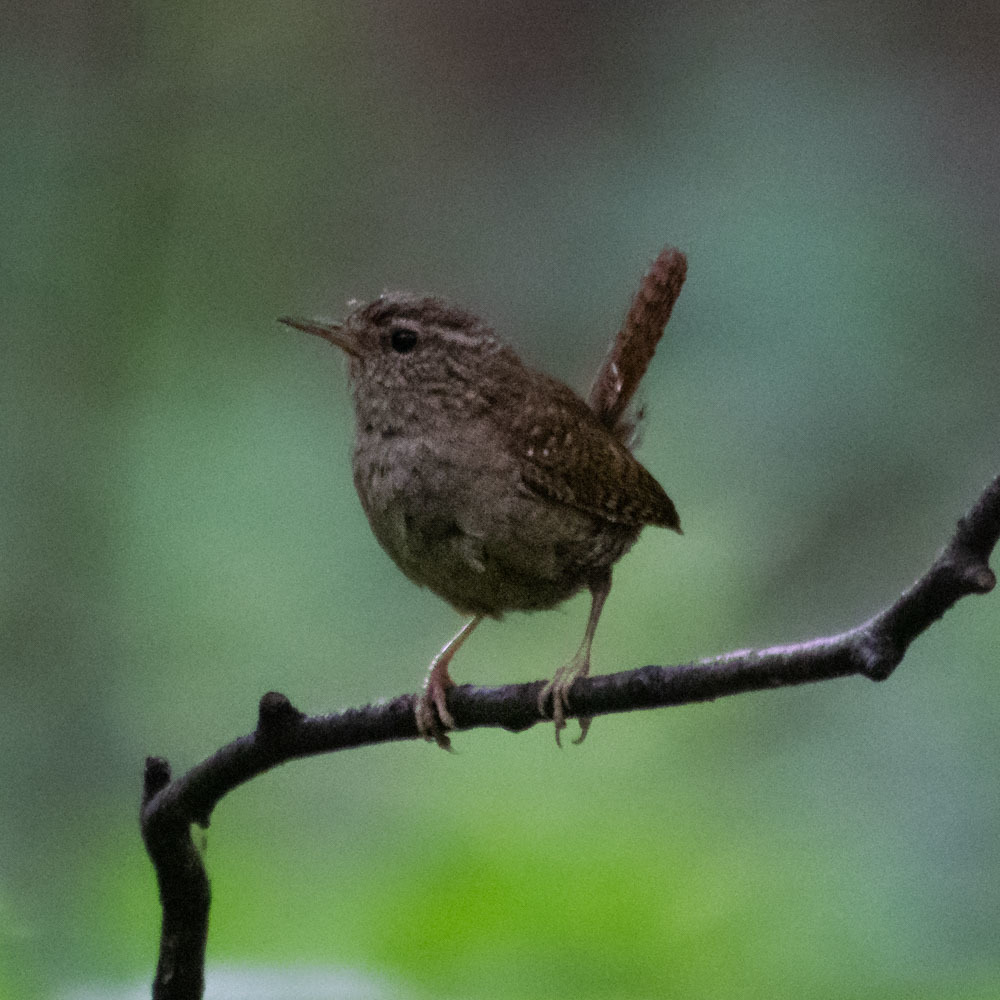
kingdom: Animalia
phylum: Chordata
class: Aves
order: Passeriformes
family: Troglodytidae
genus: Troglodytes
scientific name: Troglodytes troglodytes
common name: Eurasian wren
